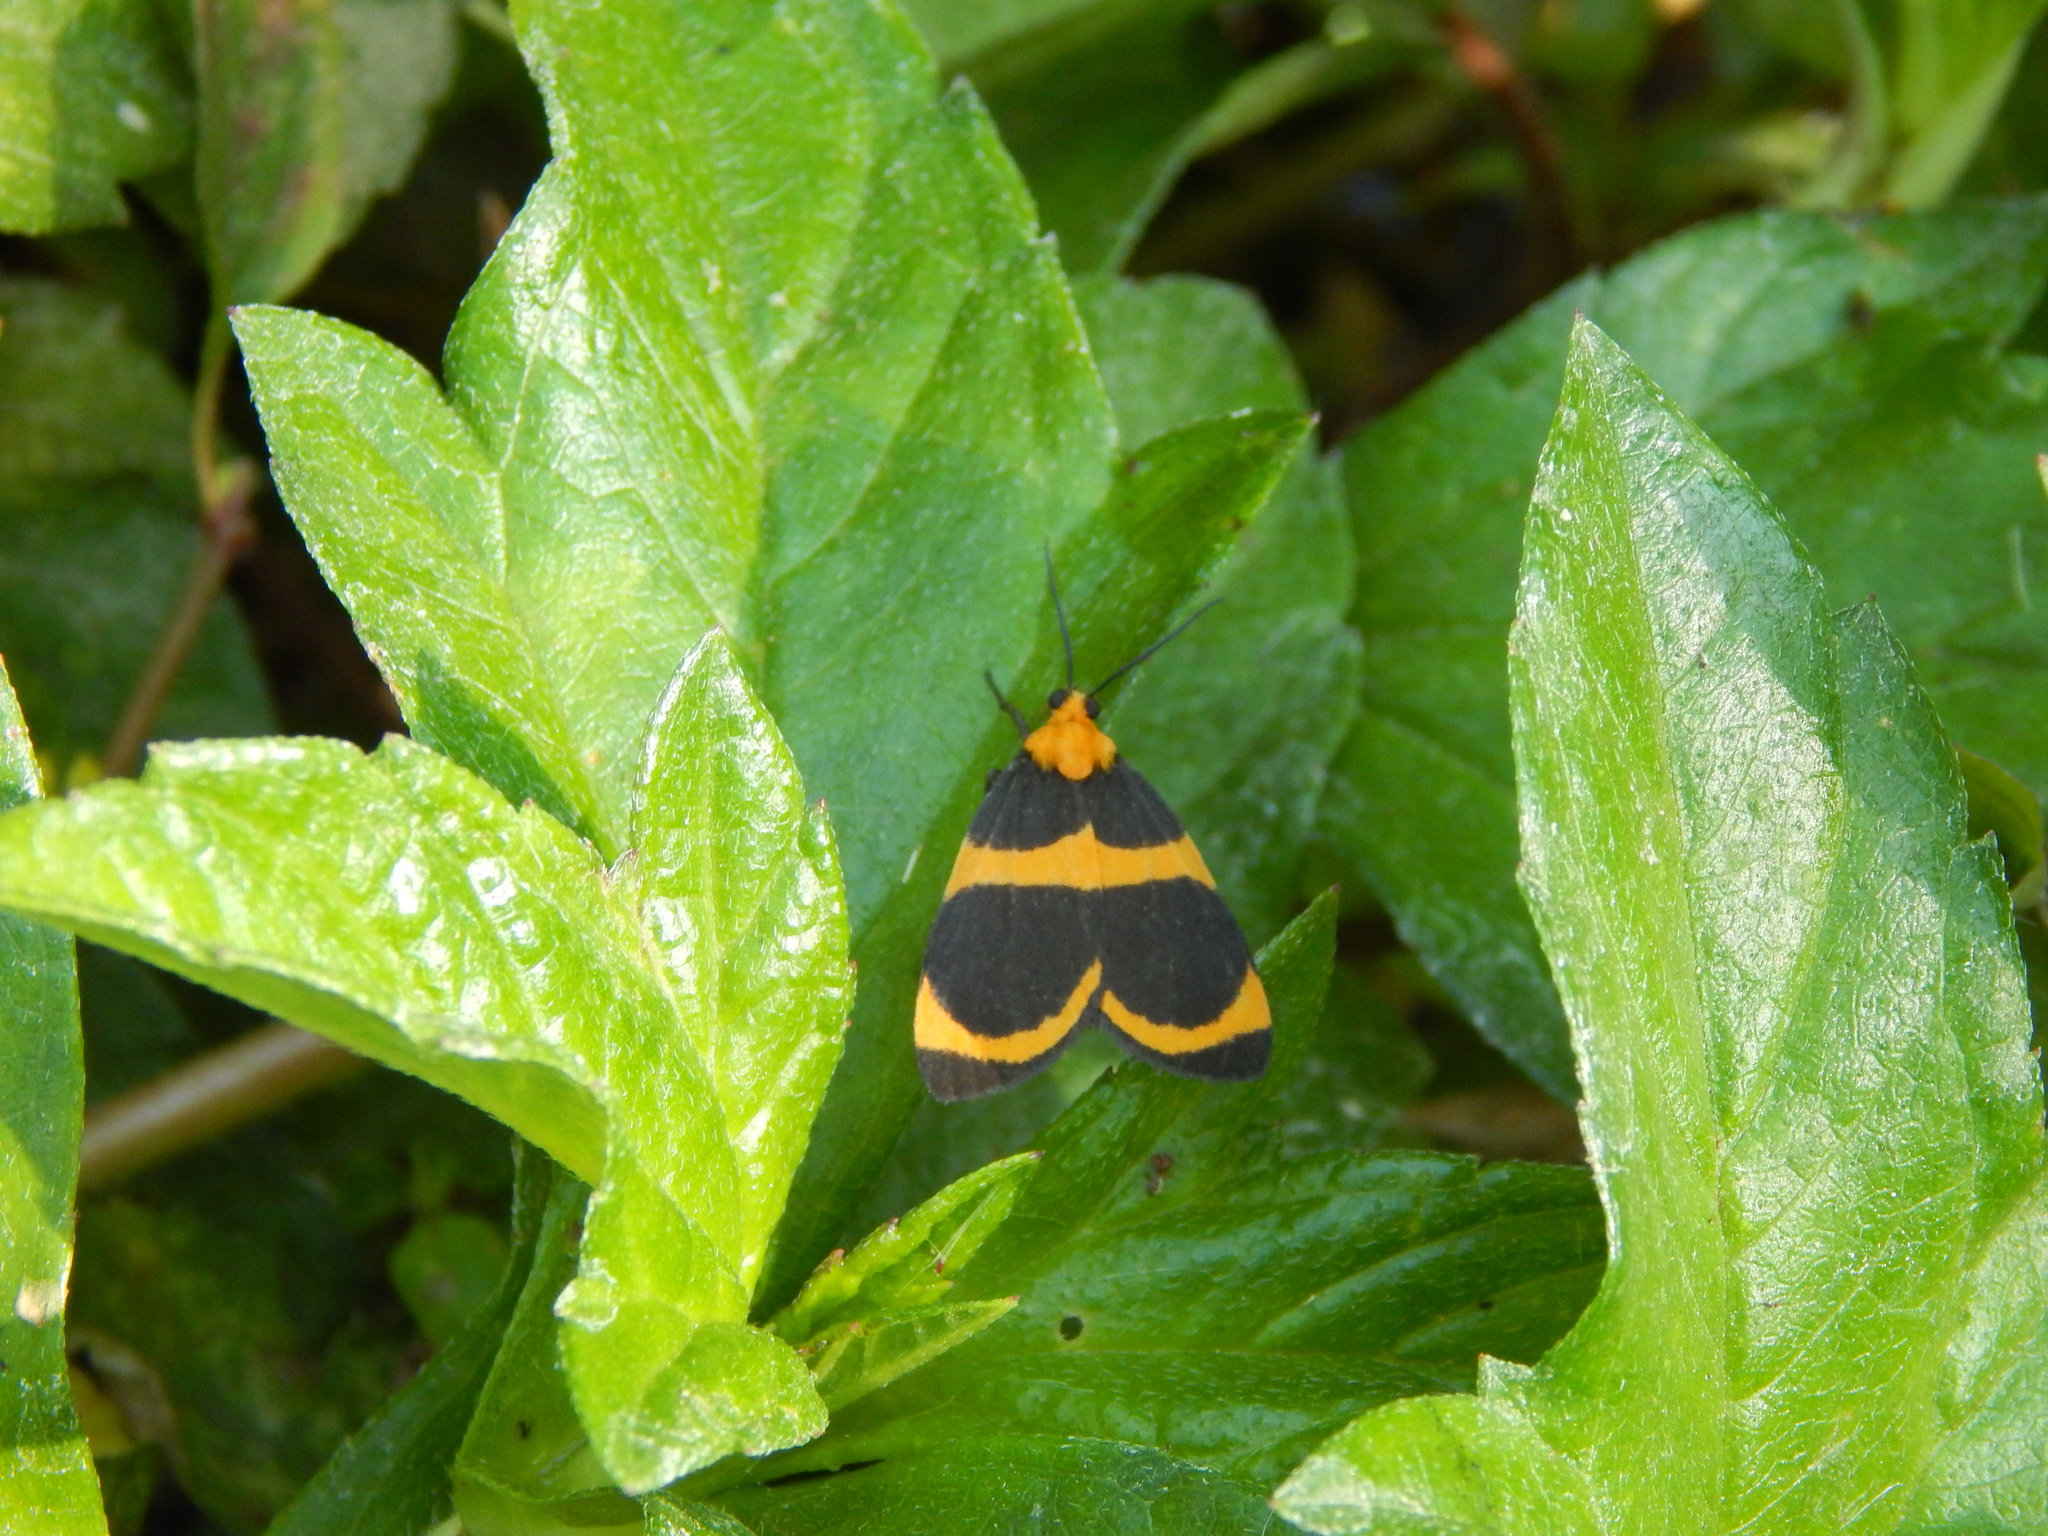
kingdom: Animalia
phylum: Arthropoda
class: Insecta
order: Lepidoptera
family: Erebidae
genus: Eudesmia
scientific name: Eudesmia arida
